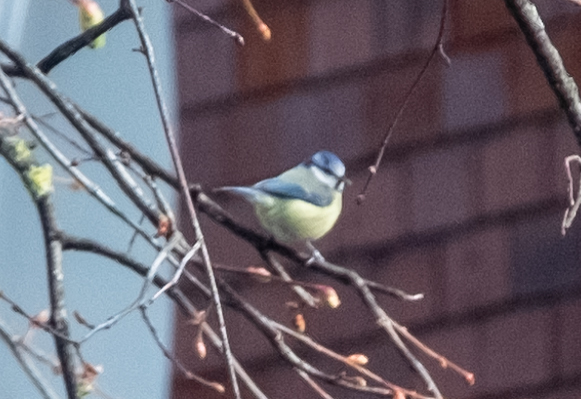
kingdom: Animalia
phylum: Chordata
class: Aves
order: Passeriformes
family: Paridae
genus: Cyanistes
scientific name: Cyanistes caeruleus
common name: Eurasian blue tit
